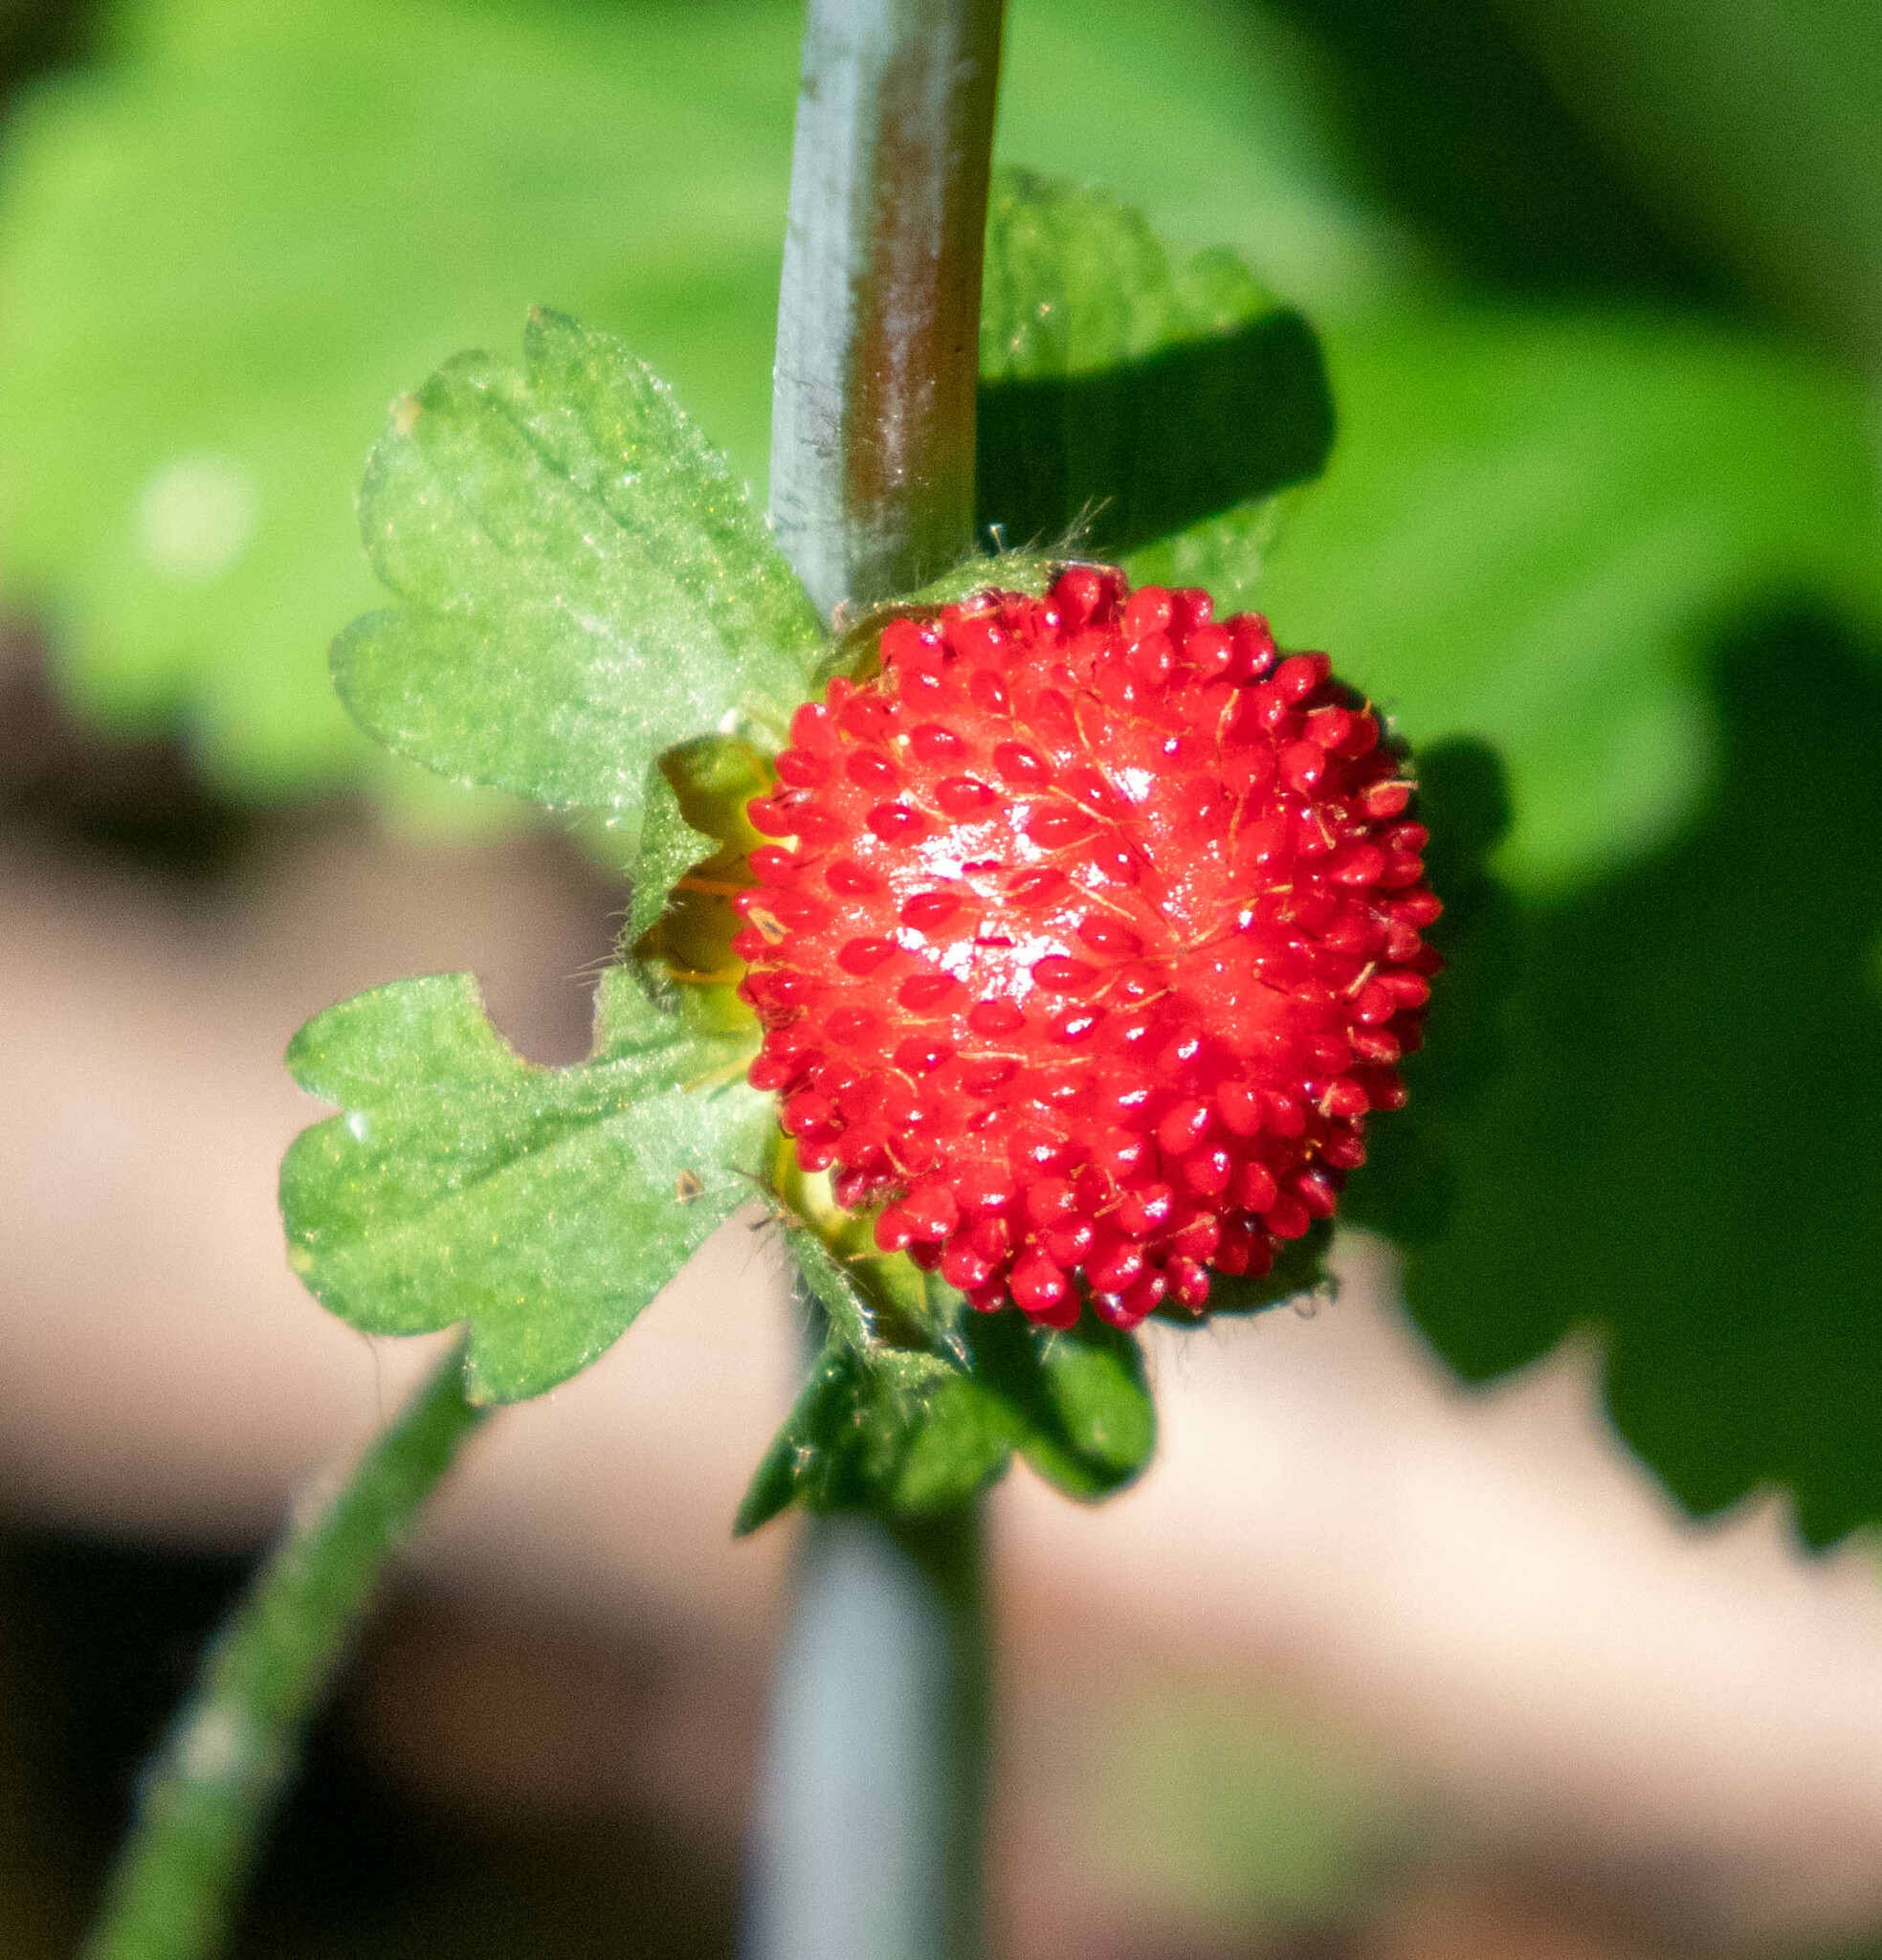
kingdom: Plantae
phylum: Tracheophyta
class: Magnoliopsida
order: Rosales
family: Rosaceae
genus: Potentilla
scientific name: Potentilla indica
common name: Yellow-flowered strawberry
